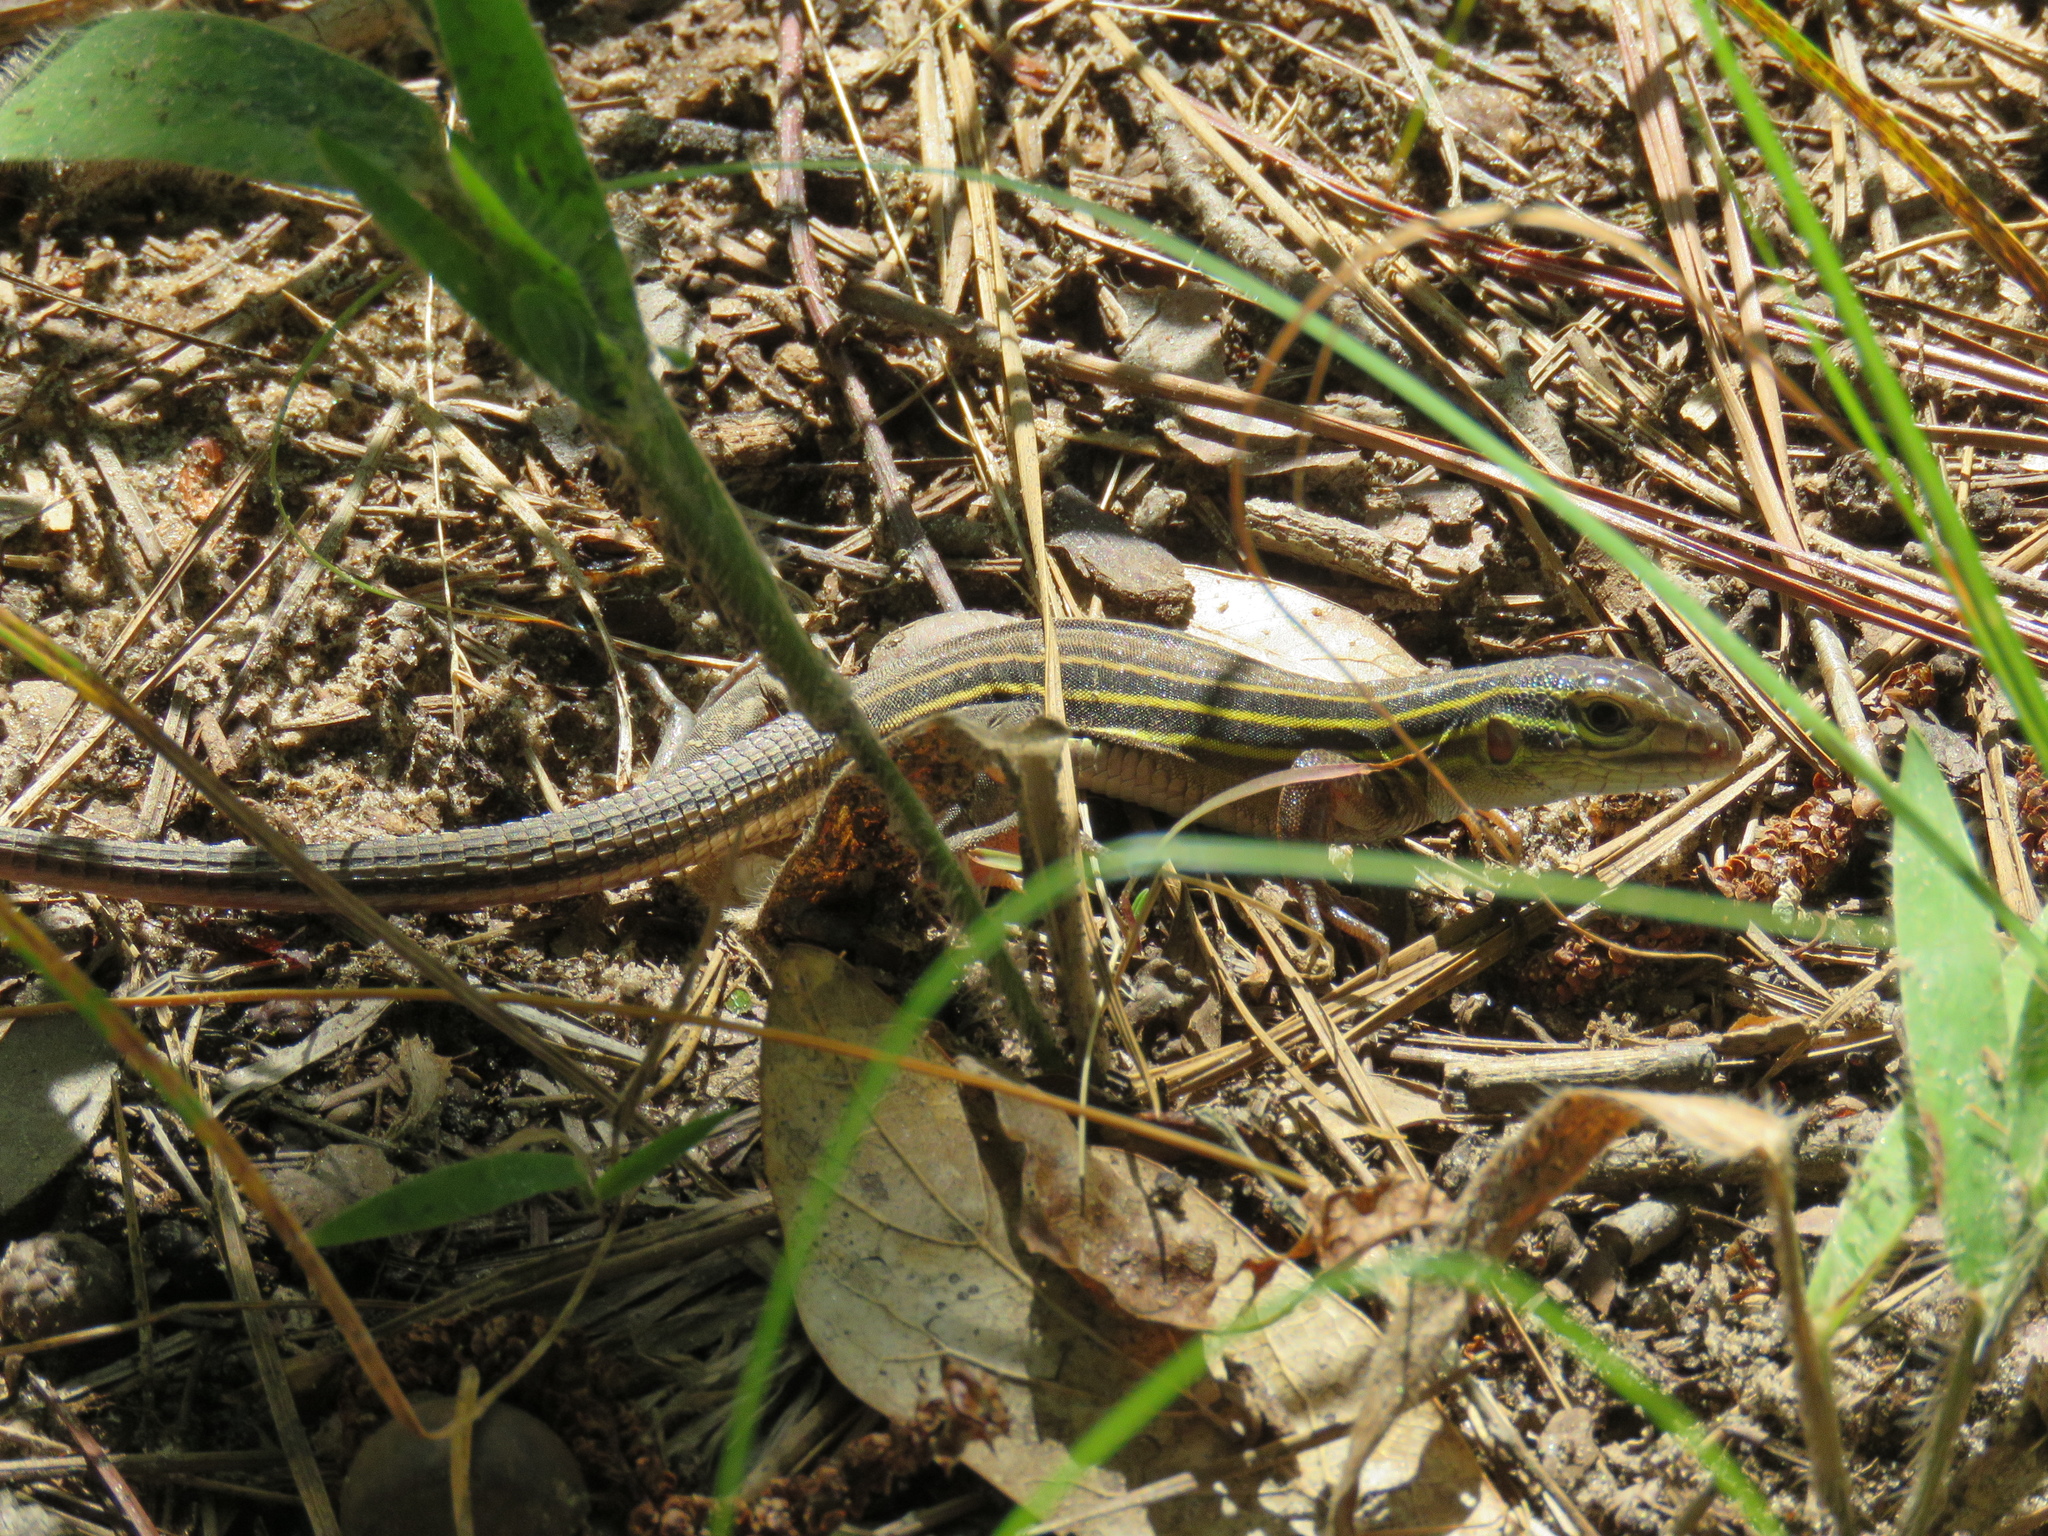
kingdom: Animalia
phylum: Chordata
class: Squamata
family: Teiidae
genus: Aspidoscelis
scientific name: Aspidoscelis sexlineatus
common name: Six-lined racerunner
